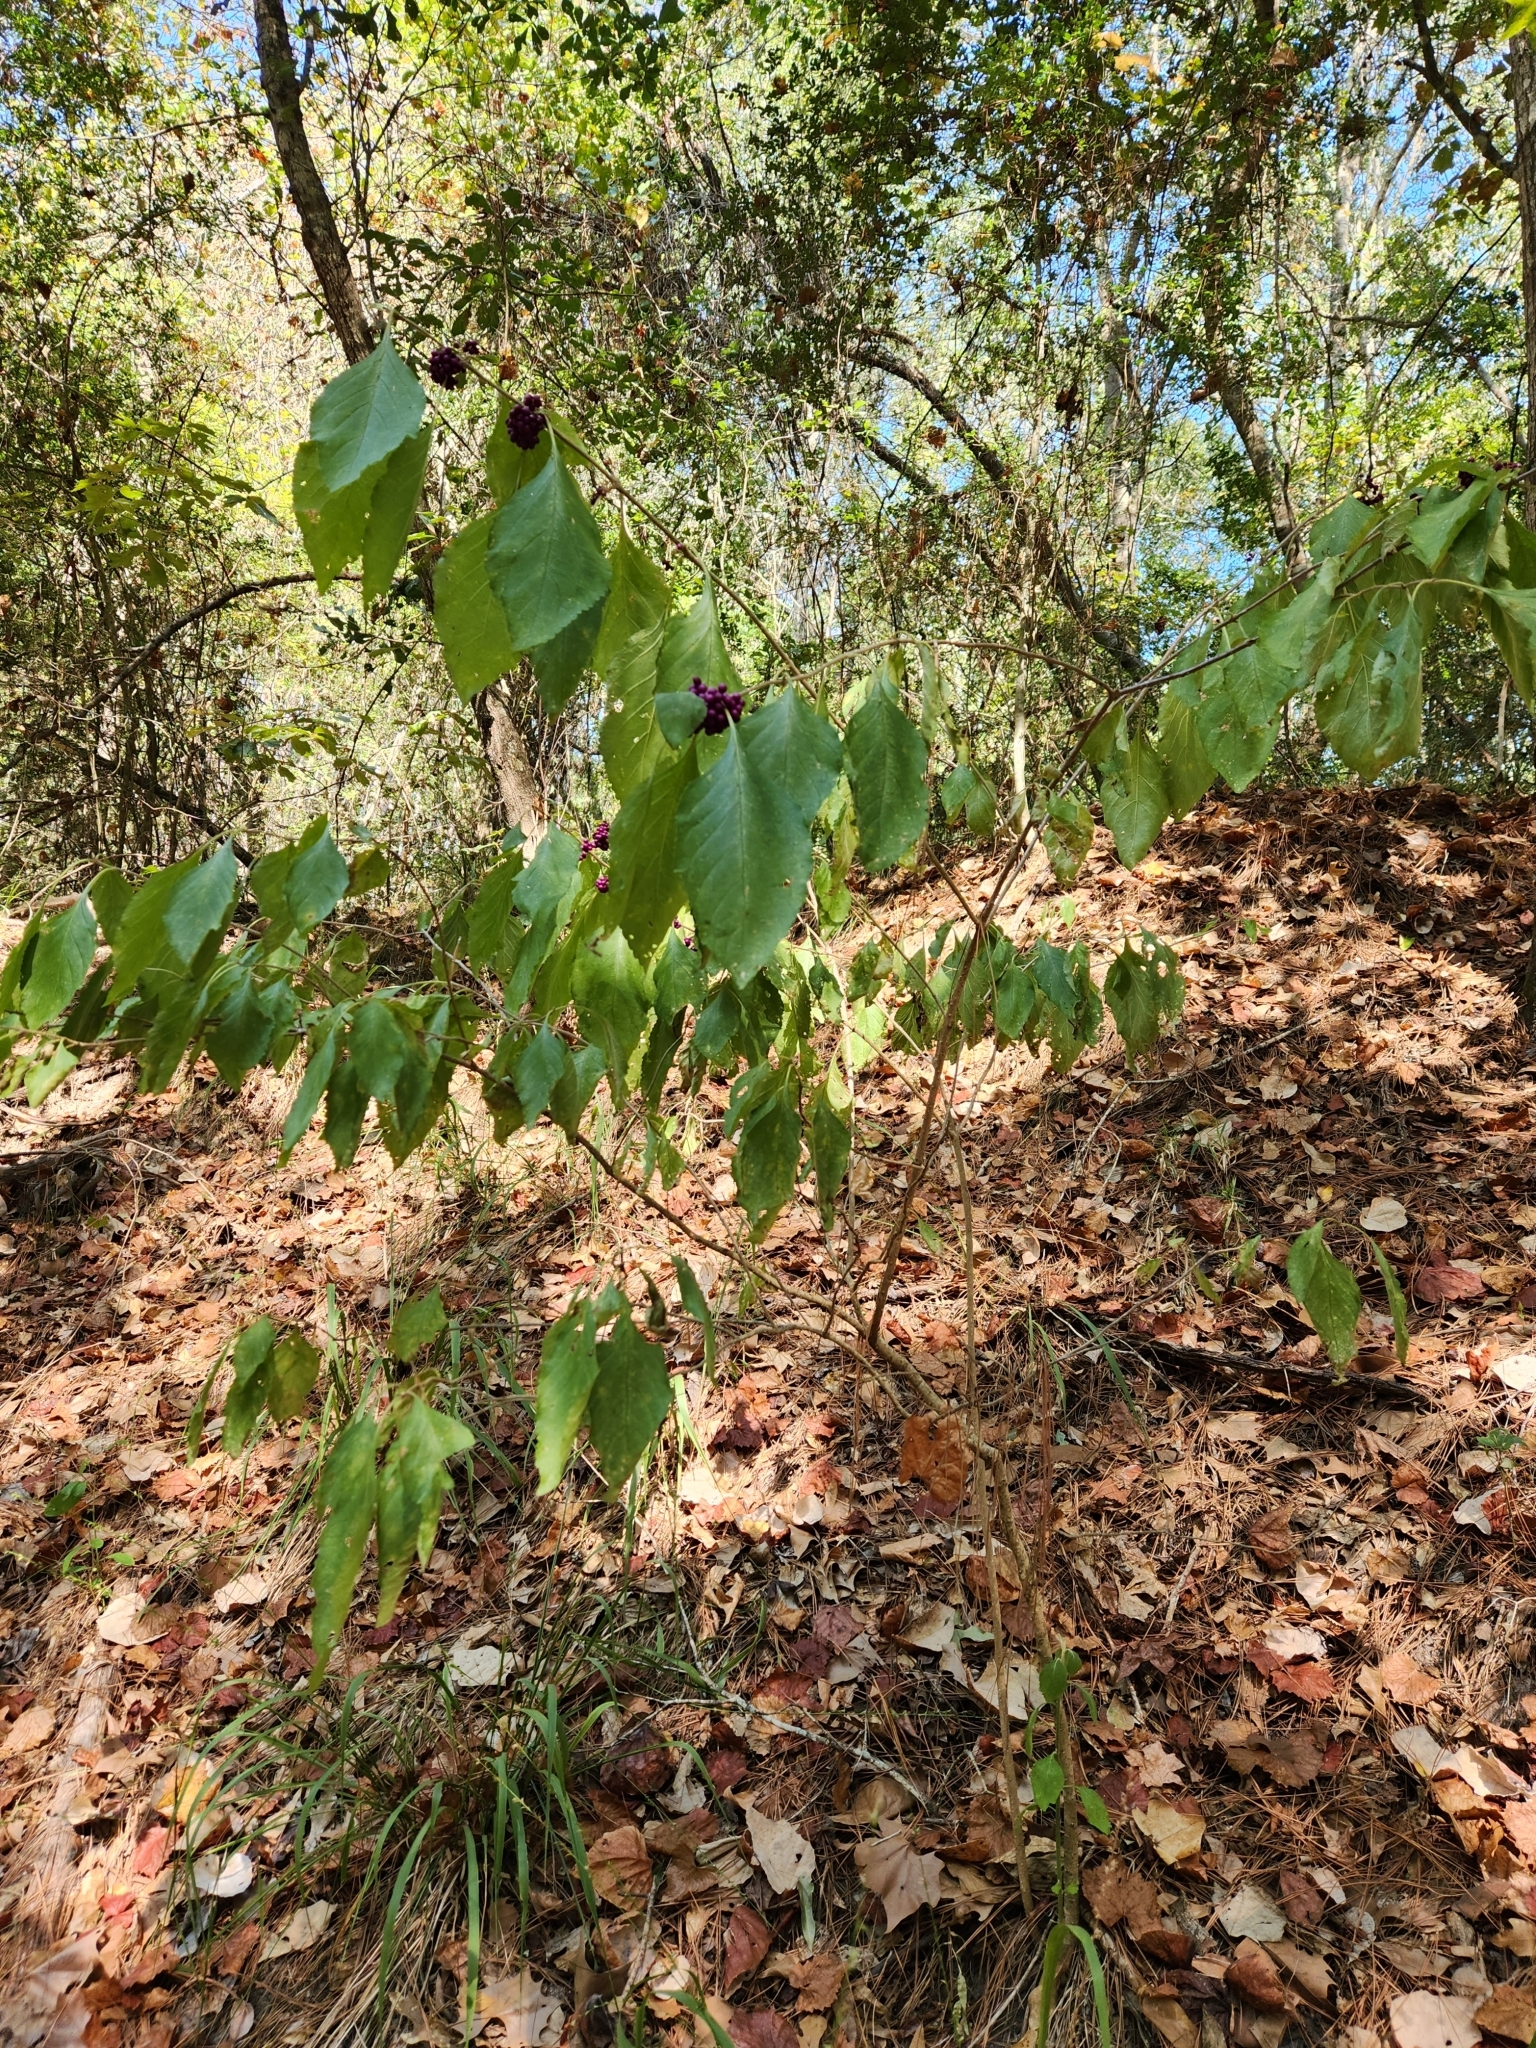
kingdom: Plantae
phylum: Tracheophyta
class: Magnoliopsida
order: Lamiales
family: Lamiaceae
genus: Callicarpa
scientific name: Callicarpa americana
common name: American beautyberry
